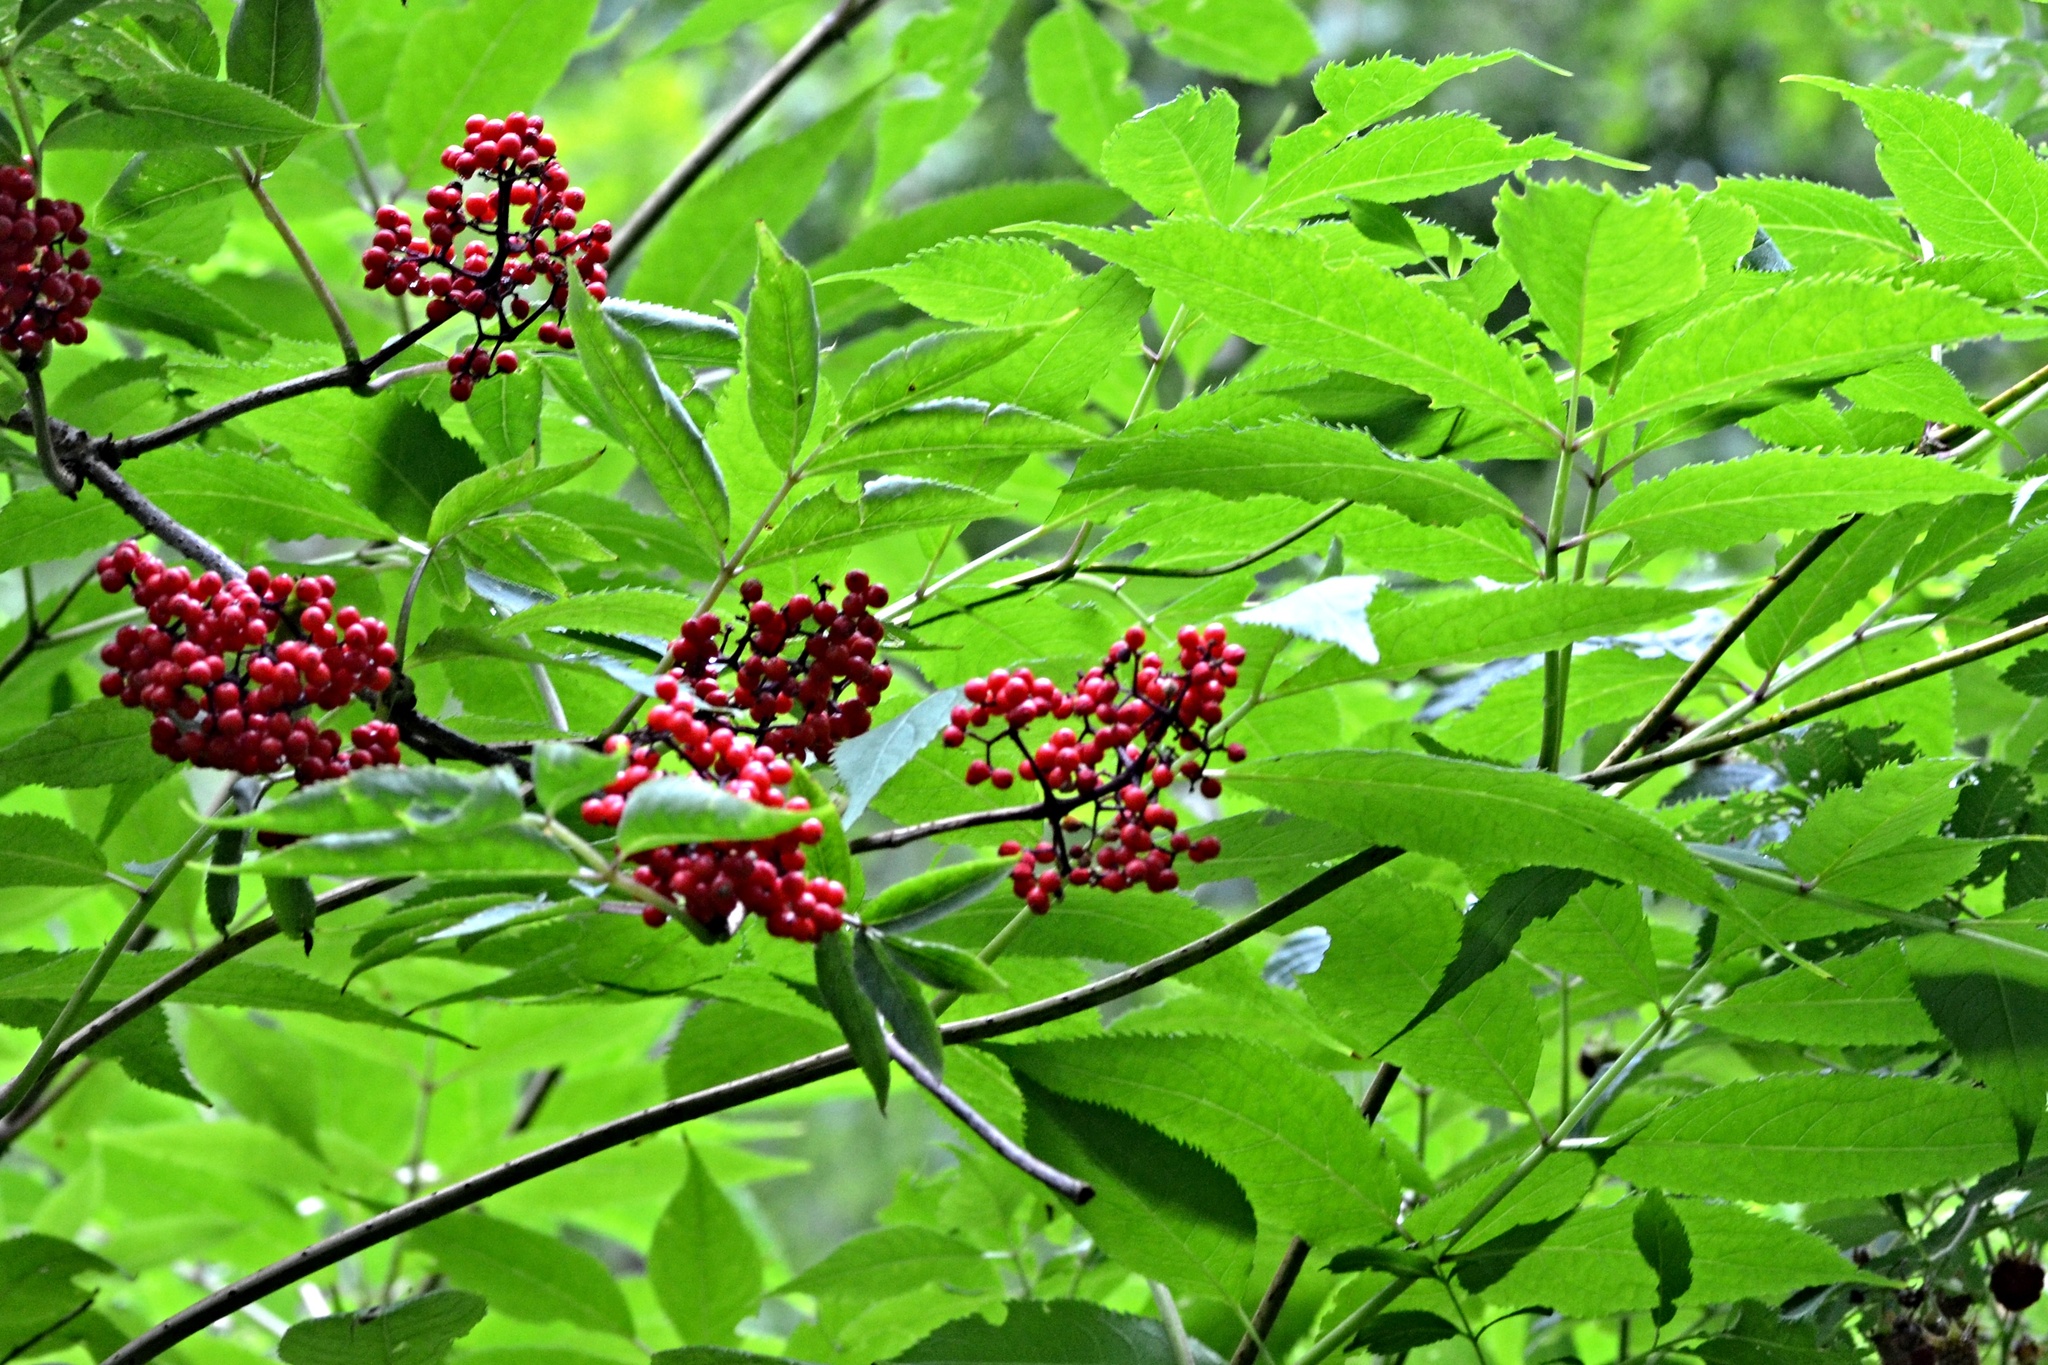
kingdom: Plantae
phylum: Tracheophyta
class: Magnoliopsida
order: Dipsacales
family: Viburnaceae
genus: Sambucus
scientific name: Sambucus racemosa
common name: Red-berried elder
